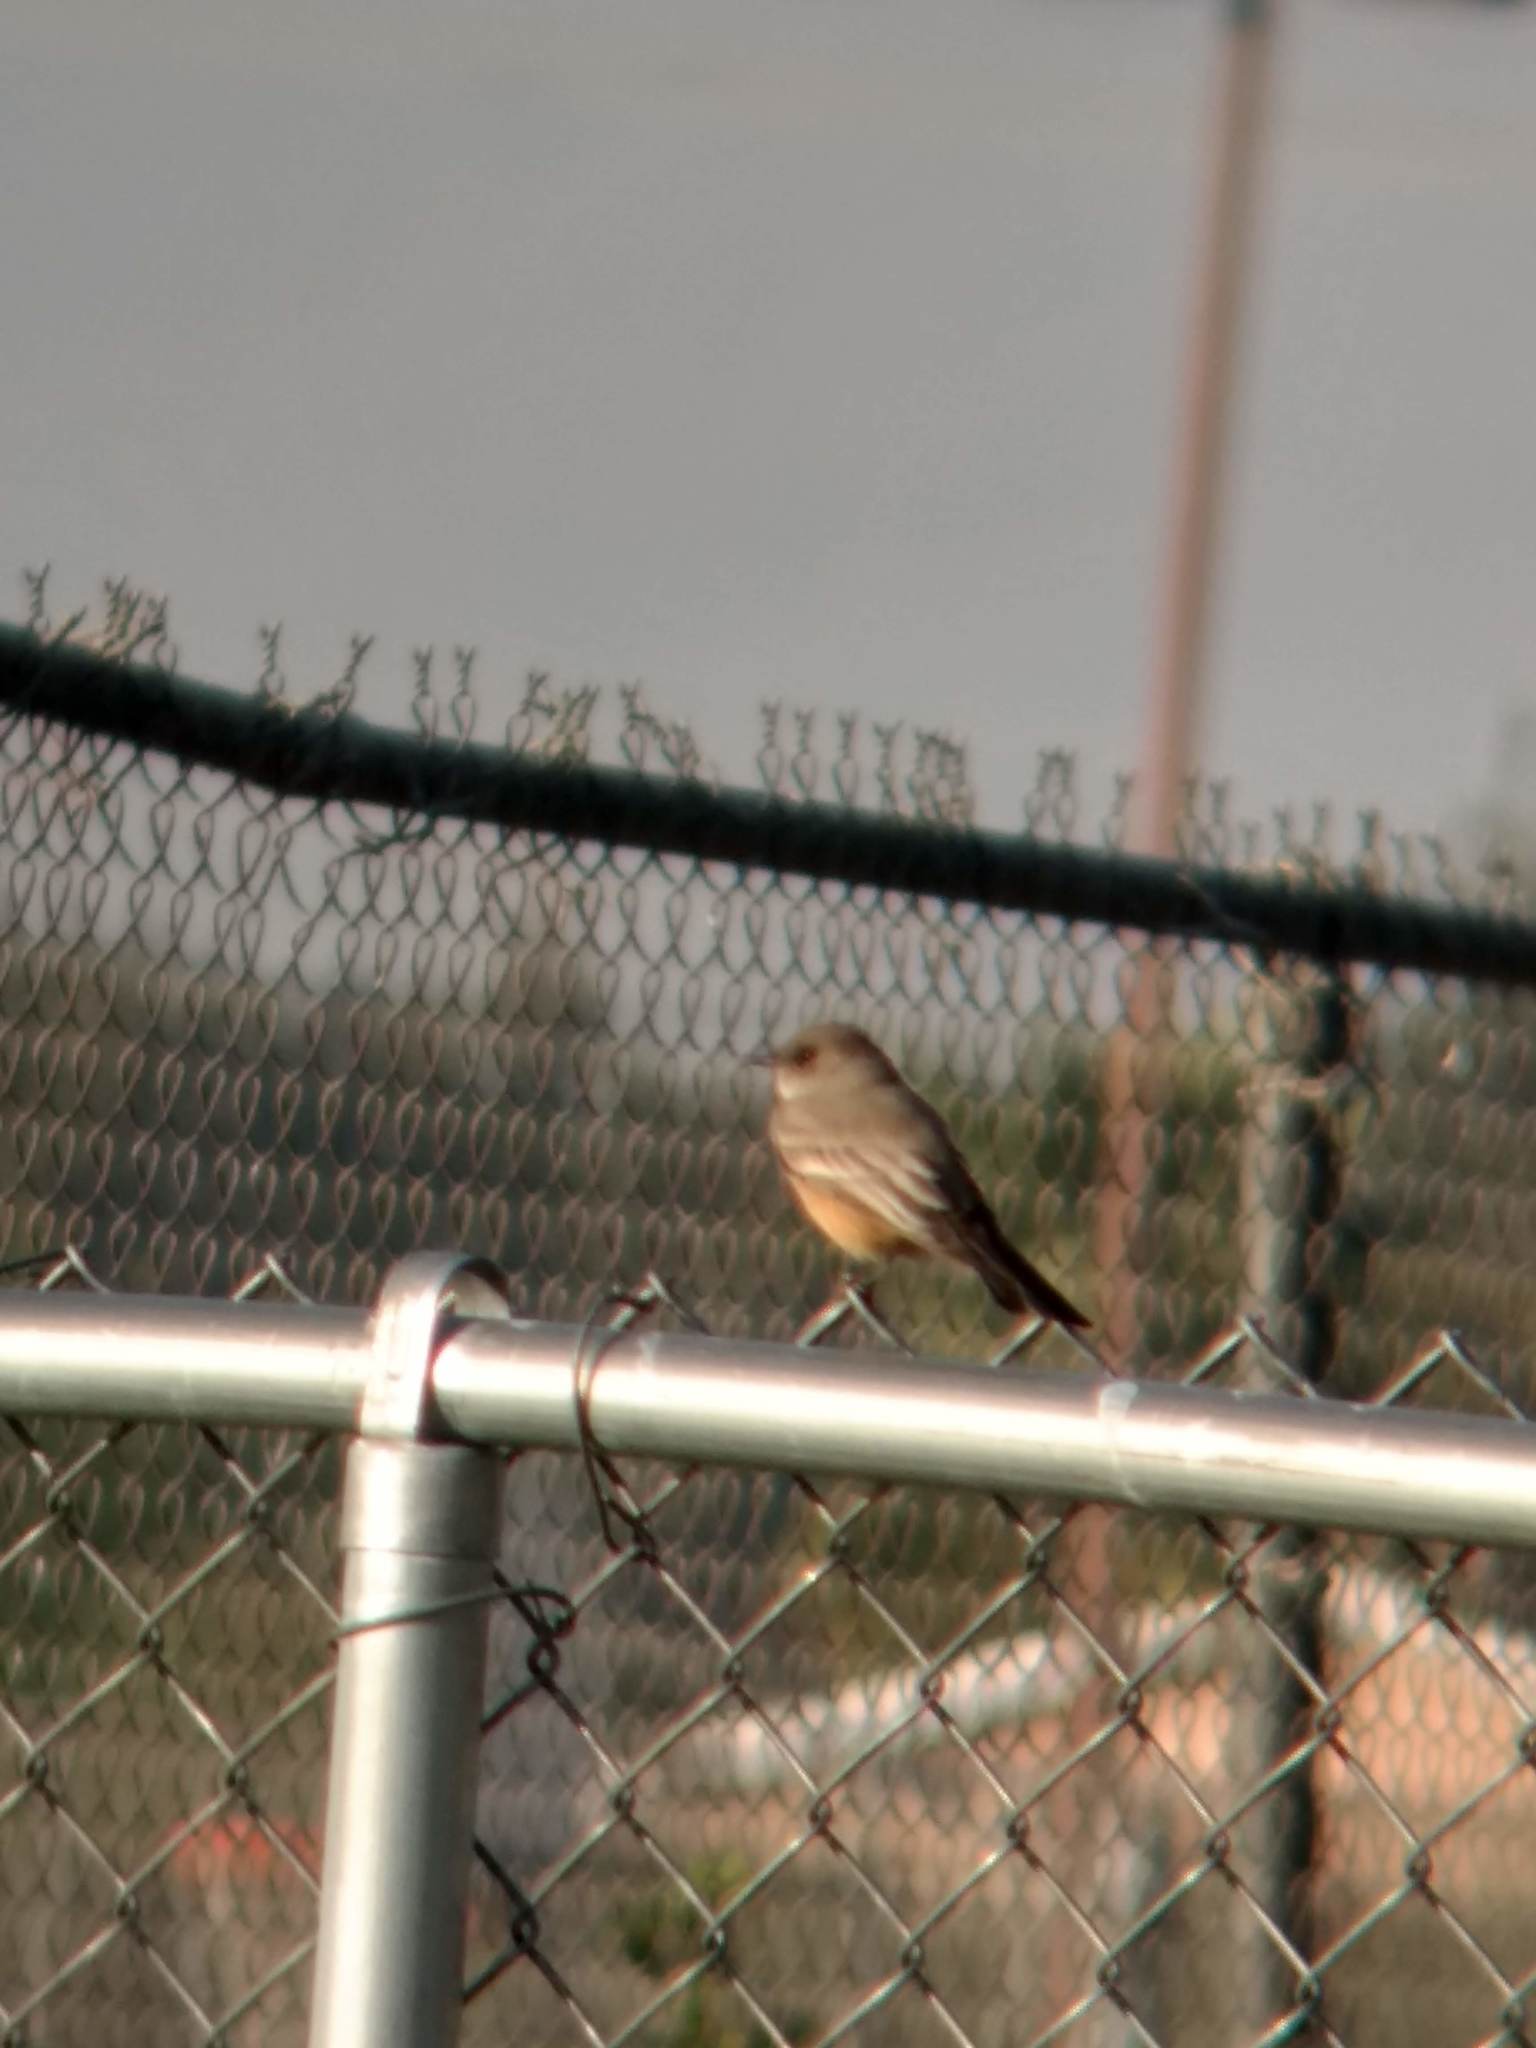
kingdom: Animalia
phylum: Chordata
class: Aves
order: Passeriformes
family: Tyrannidae
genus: Sayornis
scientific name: Sayornis saya
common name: Say's phoebe
